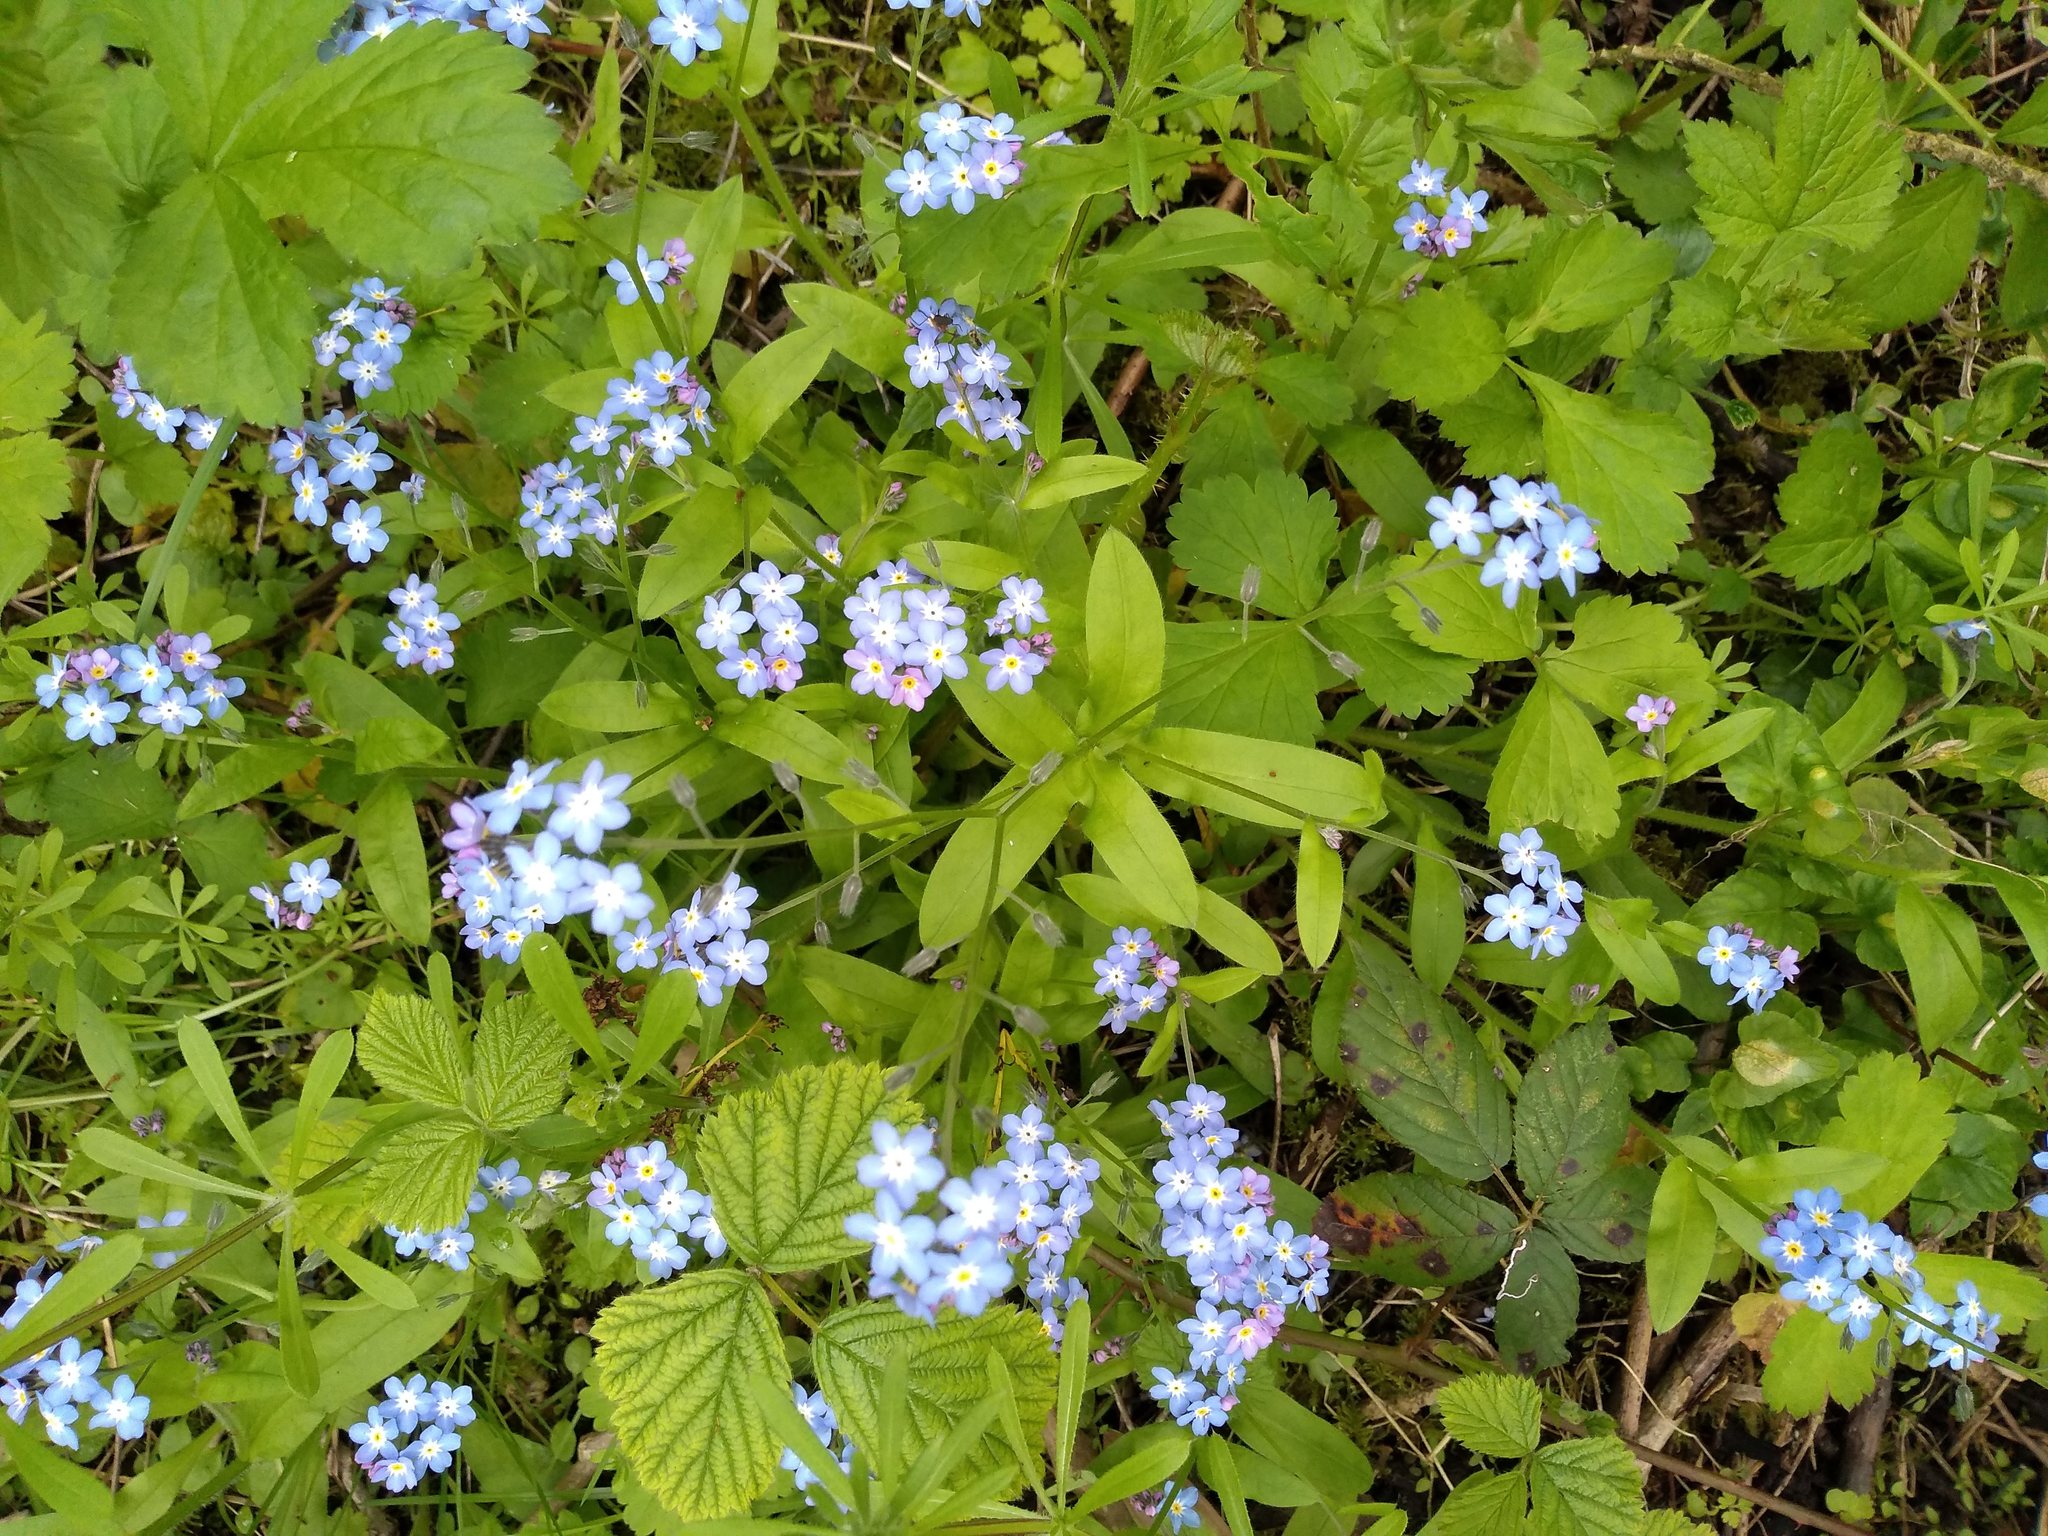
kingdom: Plantae
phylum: Tracheophyta
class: Magnoliopsida
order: Boraginales
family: Boraginaceae
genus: Myosotis
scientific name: Myosotis sylvatica
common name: Wood forget-me-not
